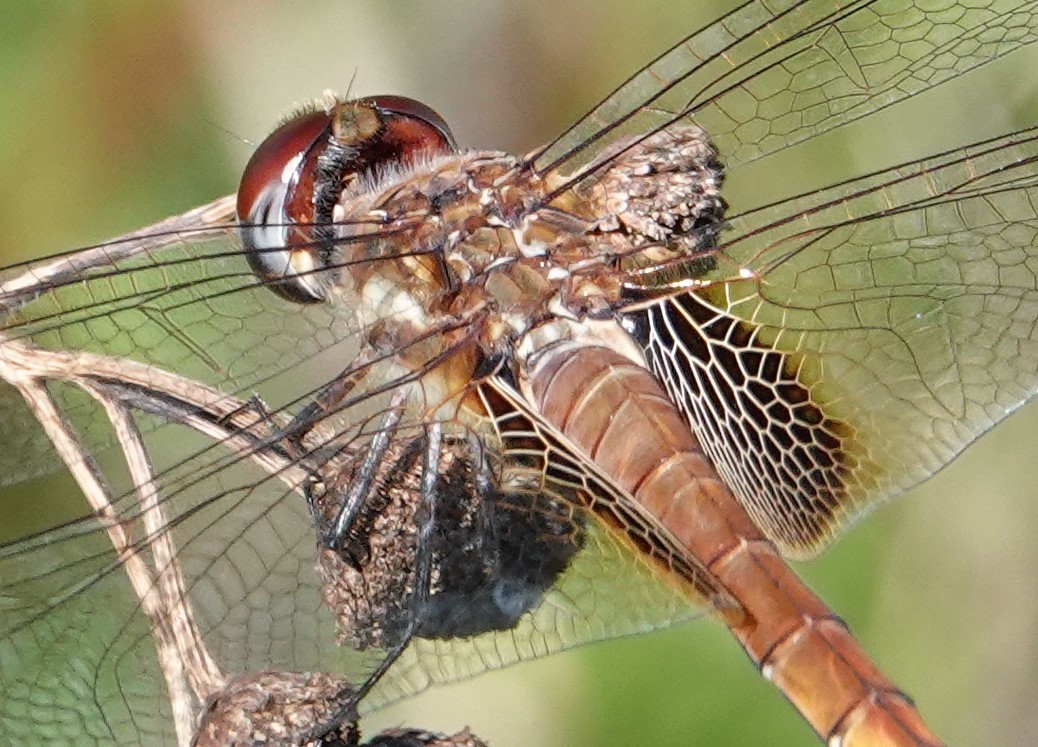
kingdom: Animalia
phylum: Arthropoda
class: Insecta
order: Odonata
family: Libellulidae
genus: Tramea
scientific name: Tramea darwini
